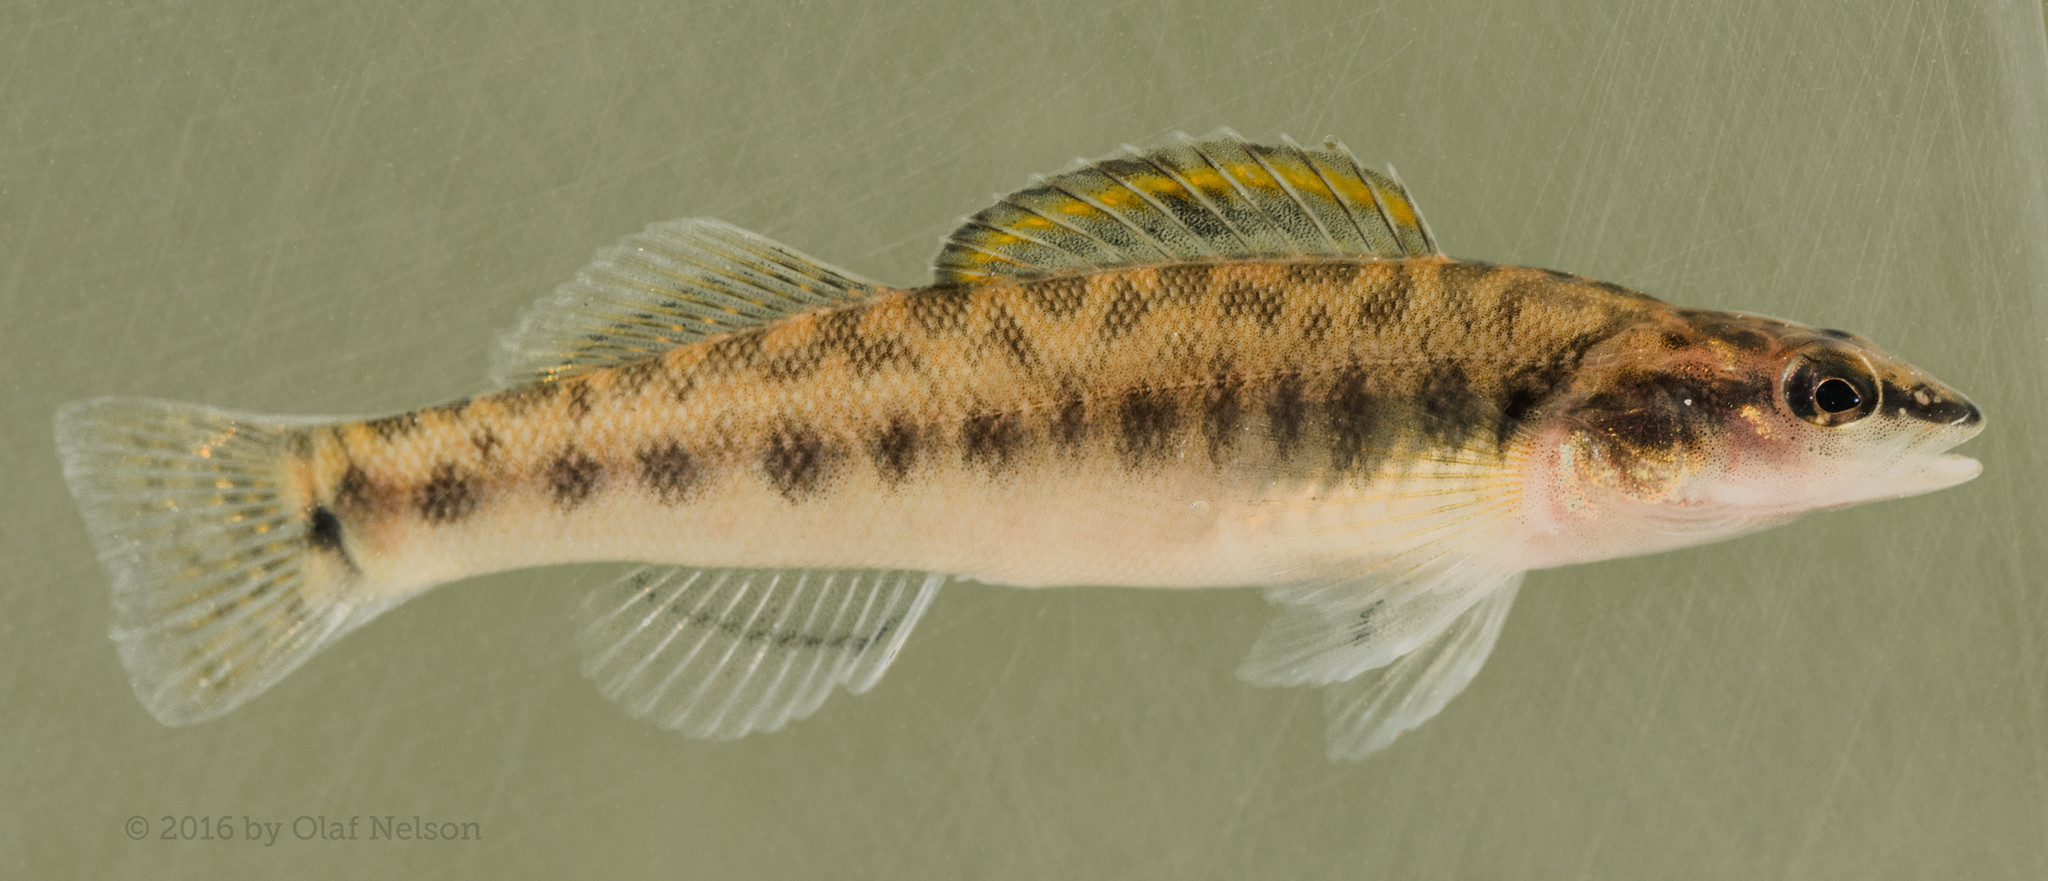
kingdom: Animalia
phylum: Chordata
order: Perciformes
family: Percidae
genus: Percina
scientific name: Percina phoxocephala
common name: Slenderhead darter
